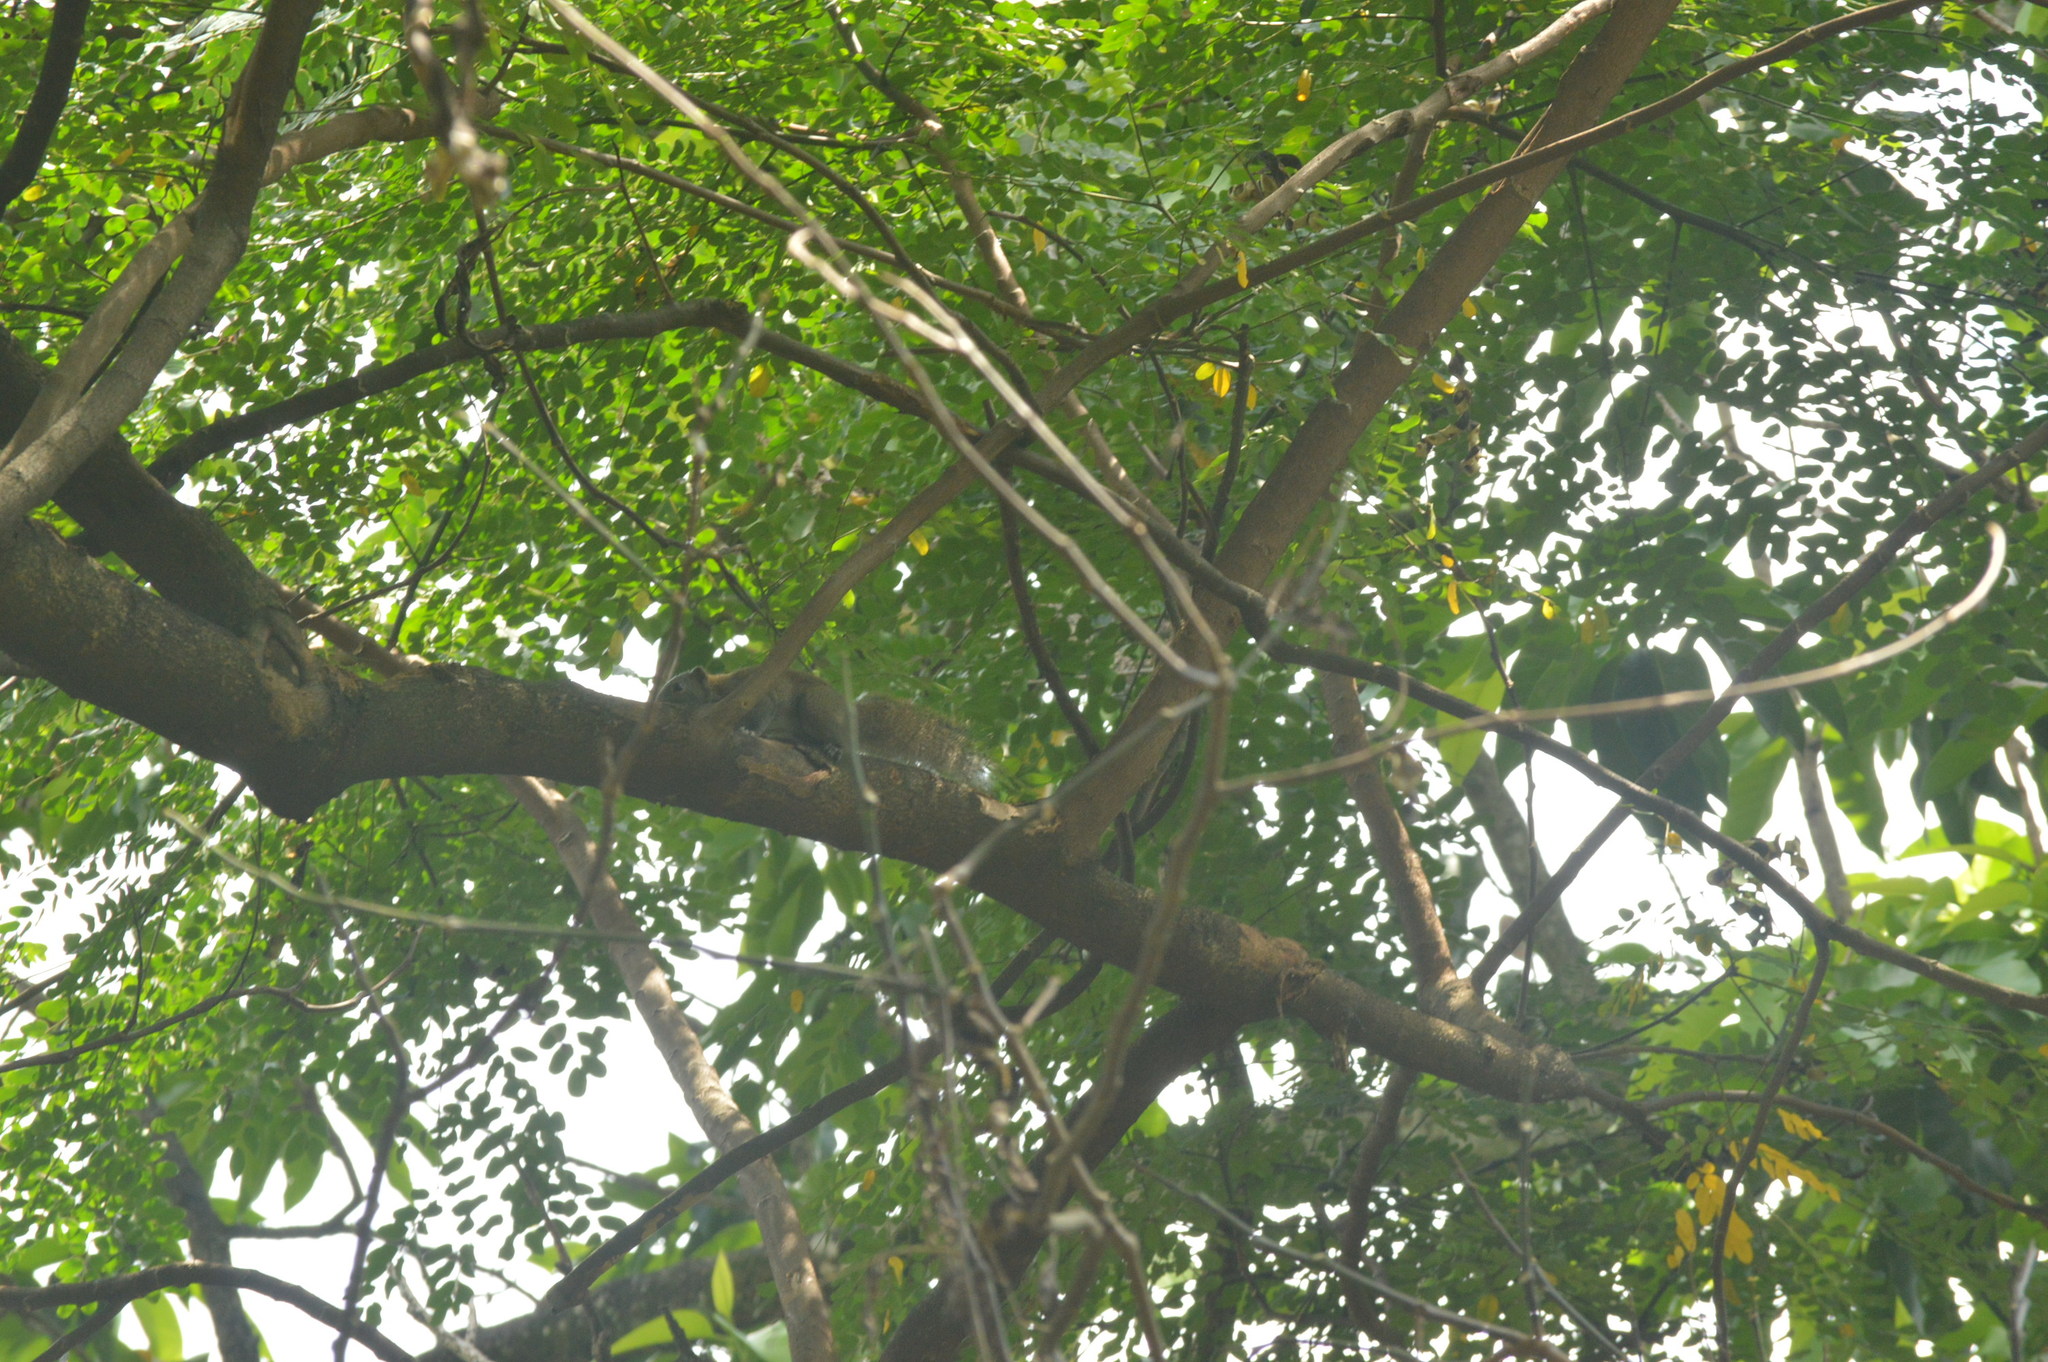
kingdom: Animalia
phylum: Chordata
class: Mammalia
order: Rodentia
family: Sciuridae
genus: Callosciurus
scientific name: Callosciurus caniceps
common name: Gray-bellied squirrel
